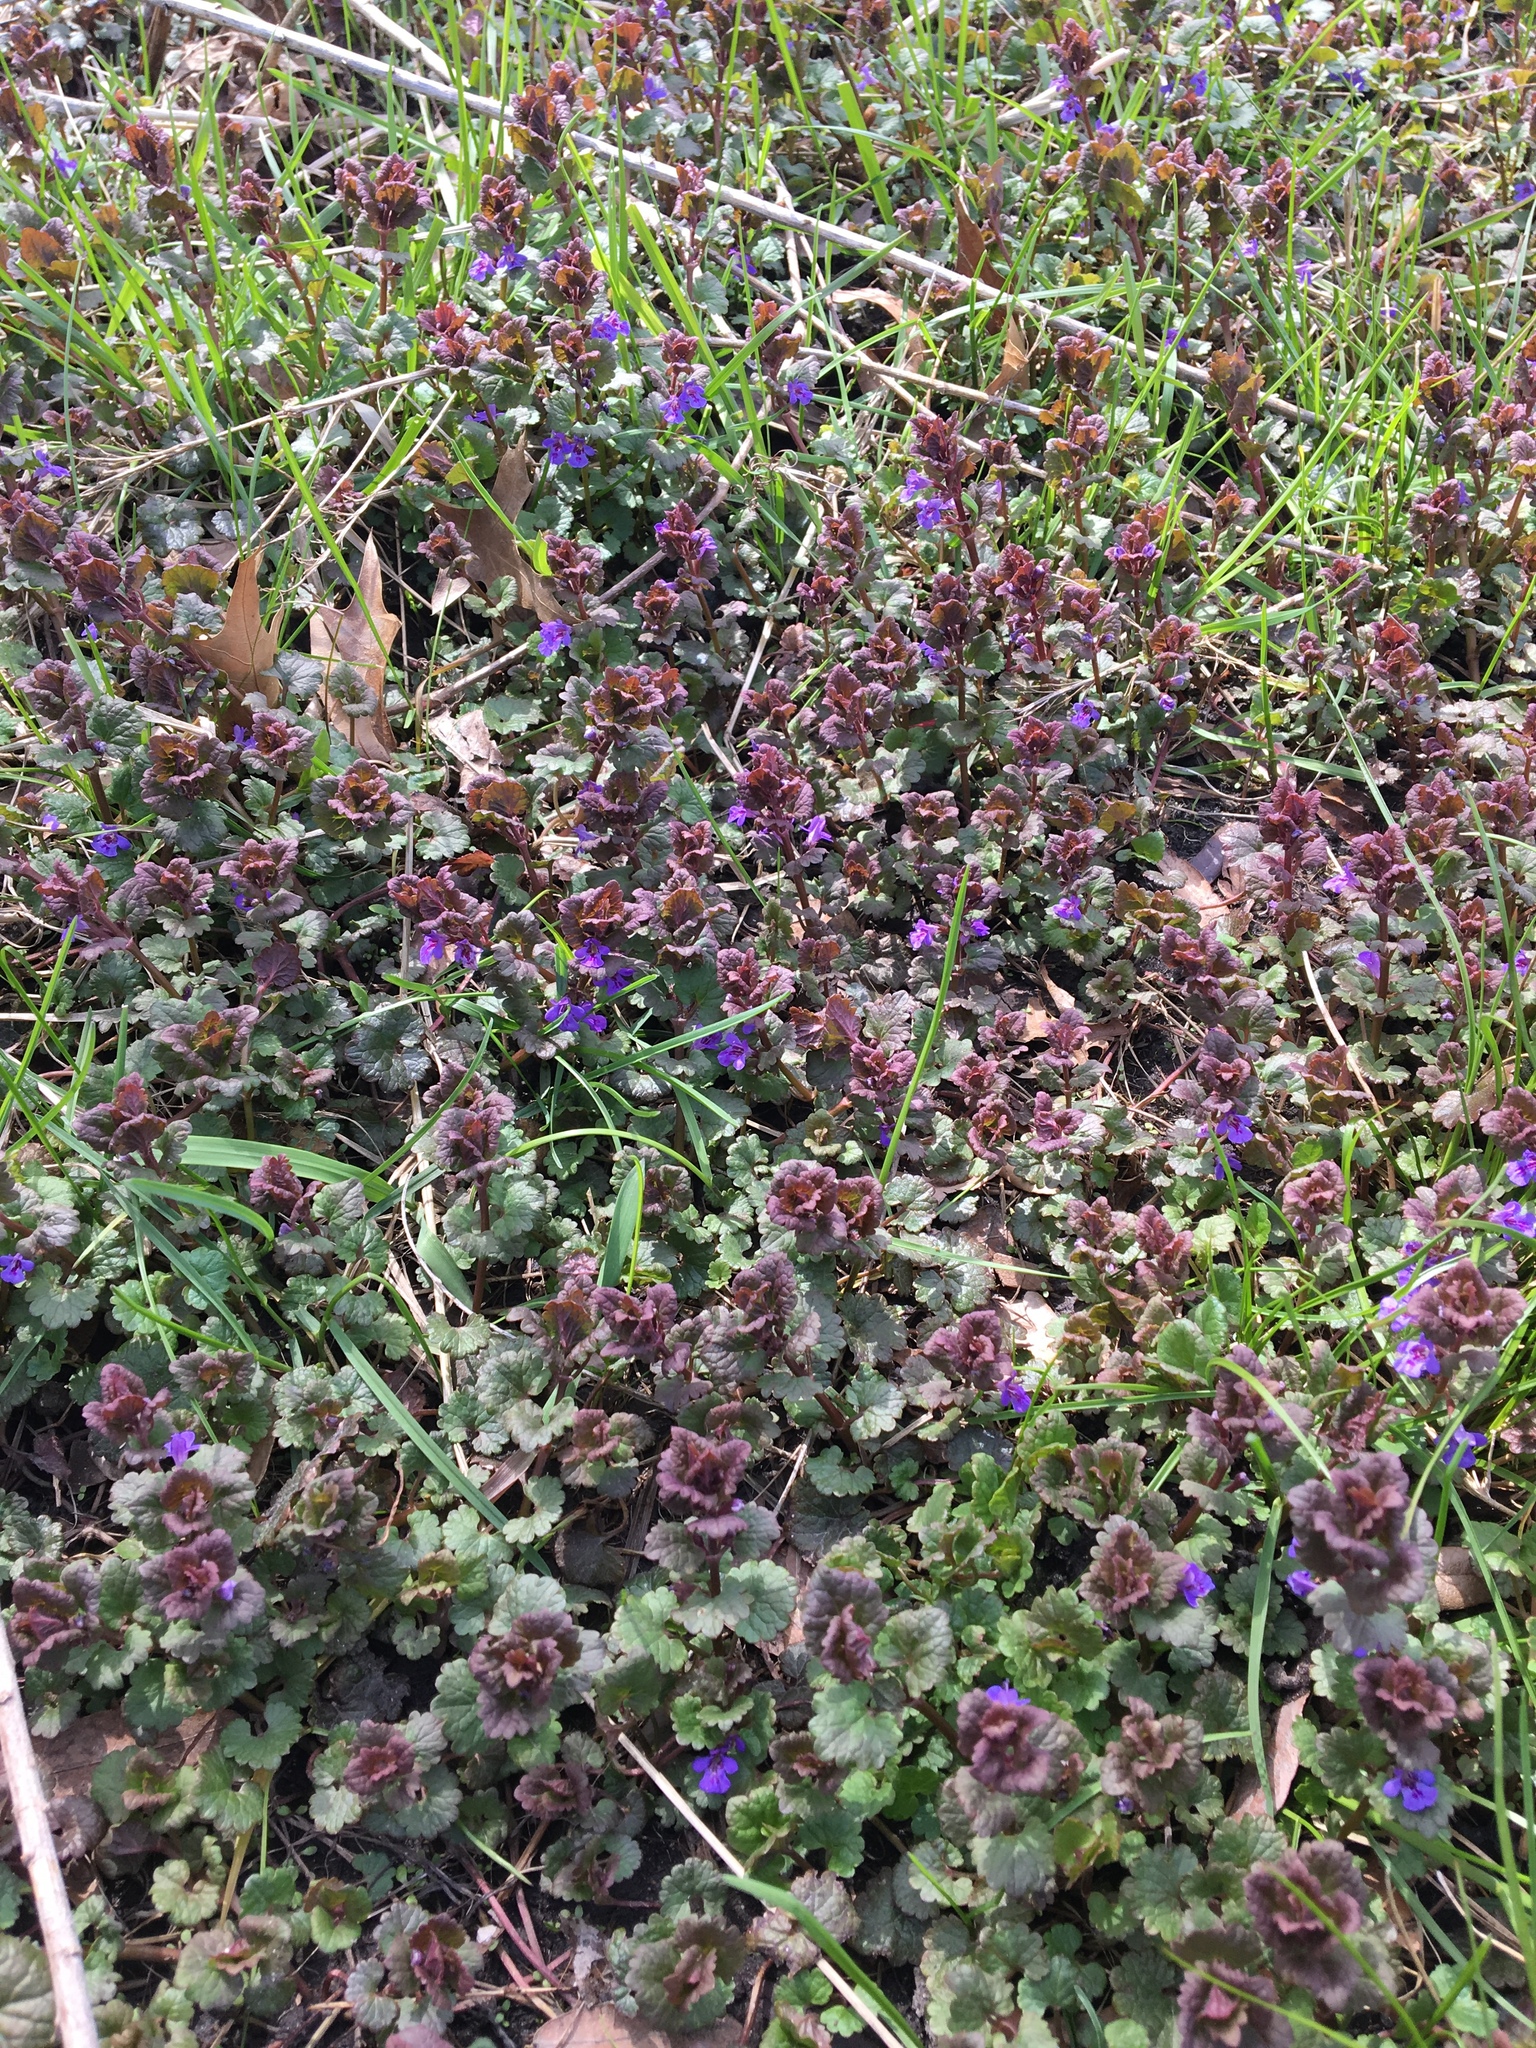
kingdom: Plantae
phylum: Tracheophyta
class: Magnoliopsida
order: Lamiales
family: Lamiaceae
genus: Glechoma
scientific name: Glechoma hederacea
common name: Ground ivy
